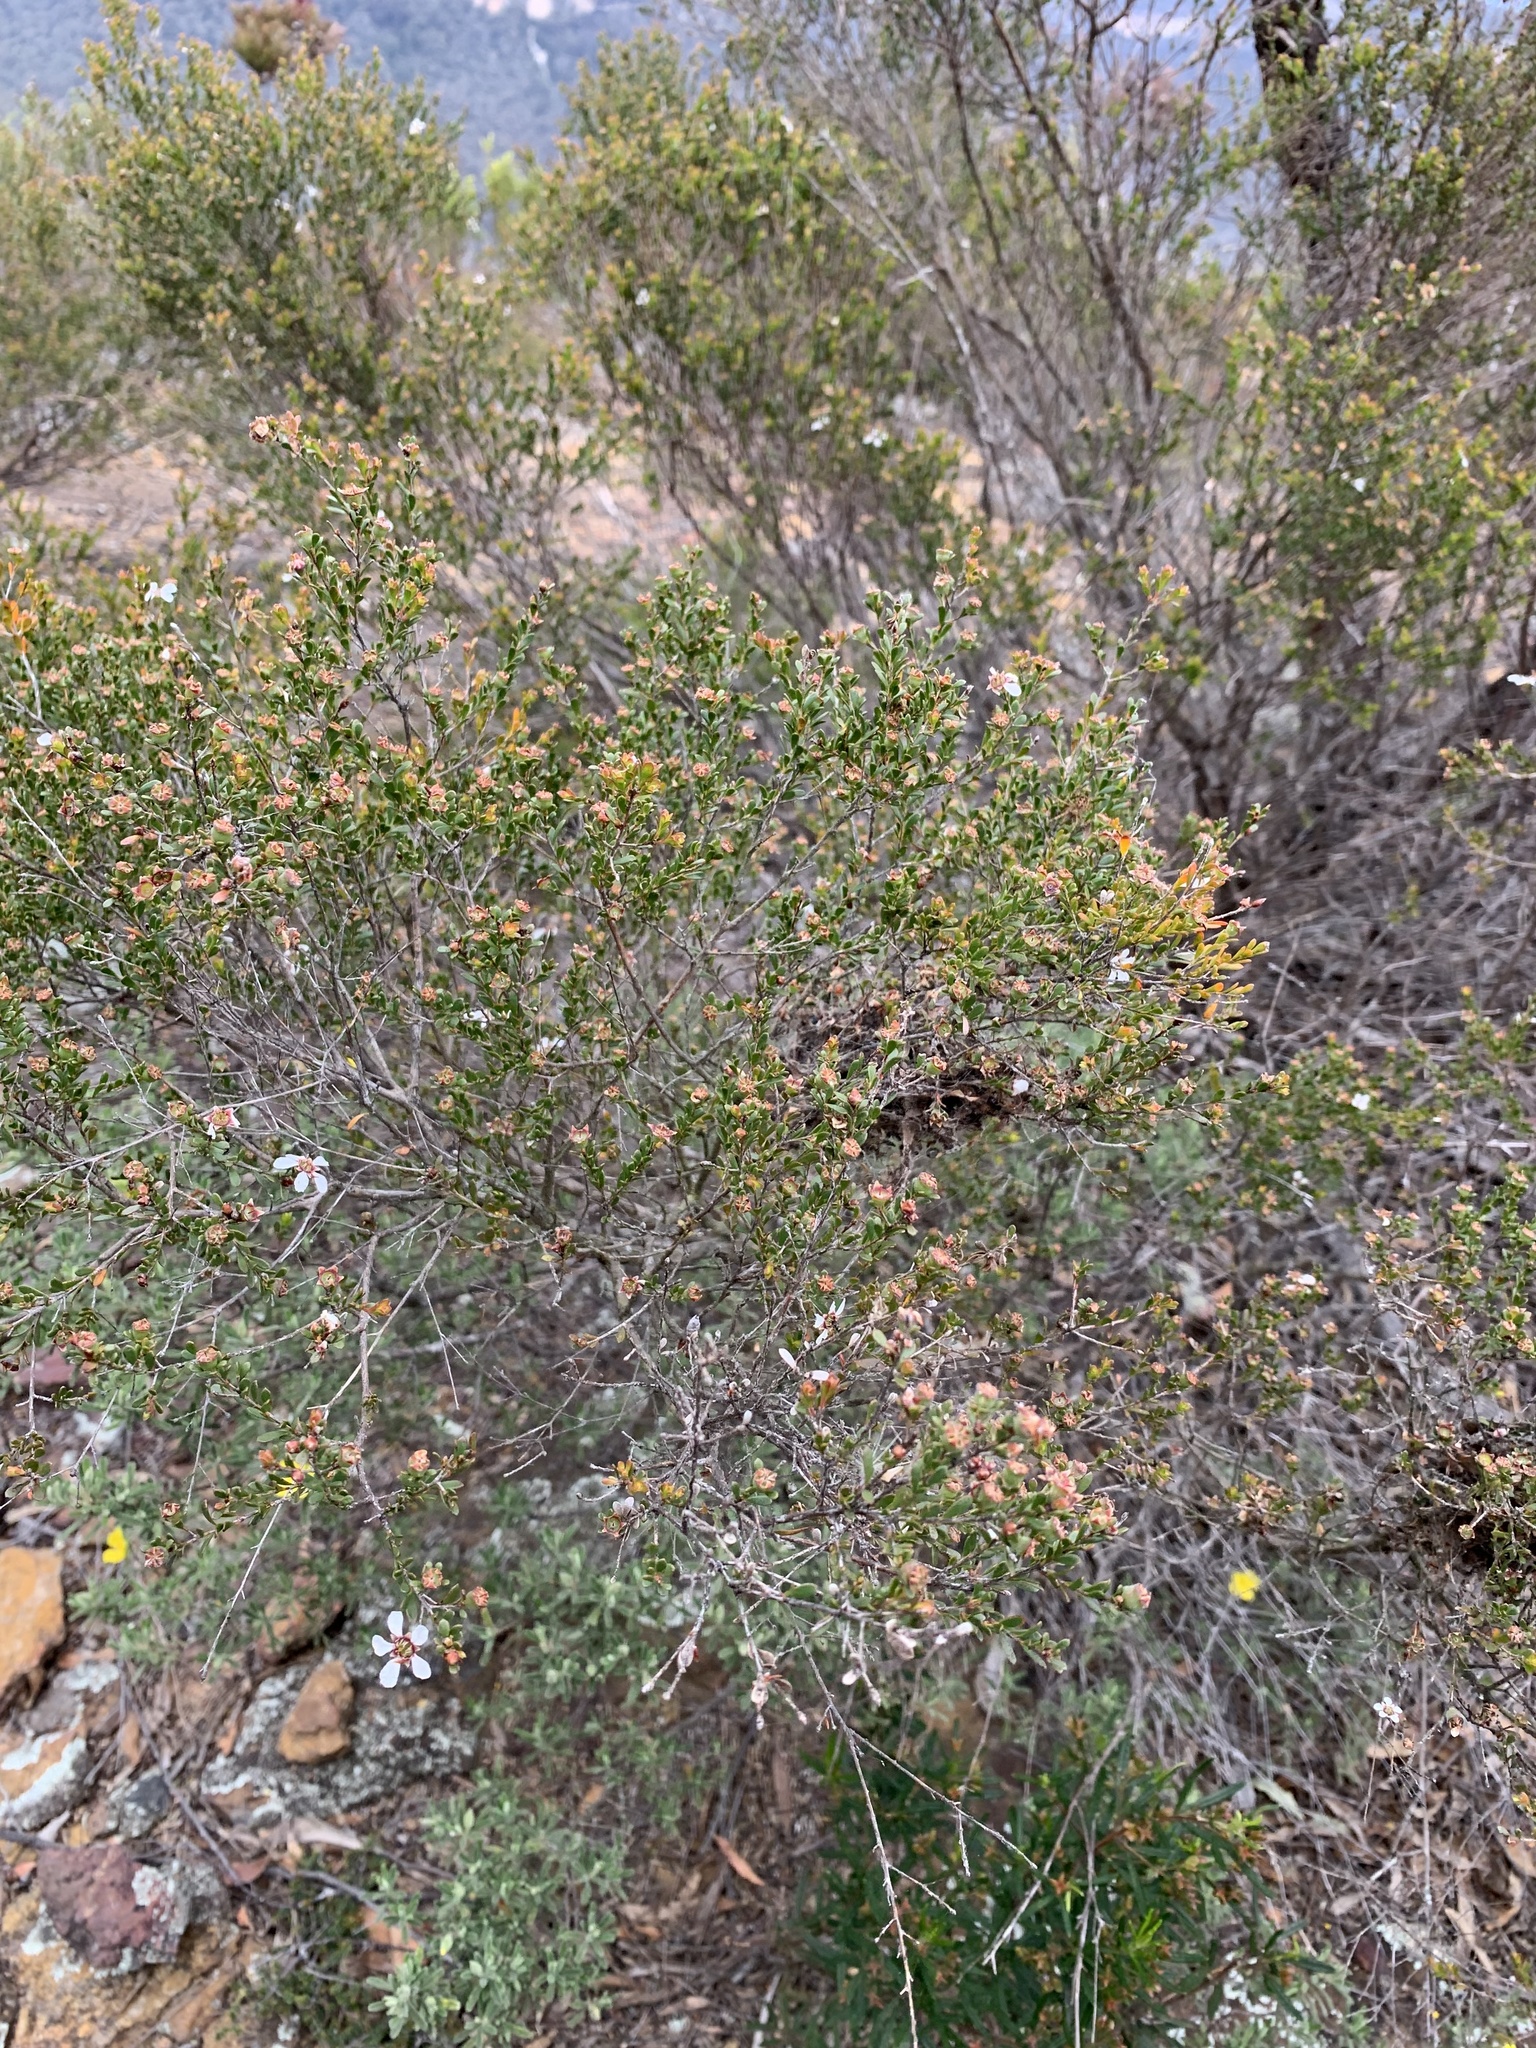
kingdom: Plantae
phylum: Tracheophyta
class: Magnoliopsida
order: Myrtales
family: Myrtaceae
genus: Leptospermum
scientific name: Leptospermum parvifolium
